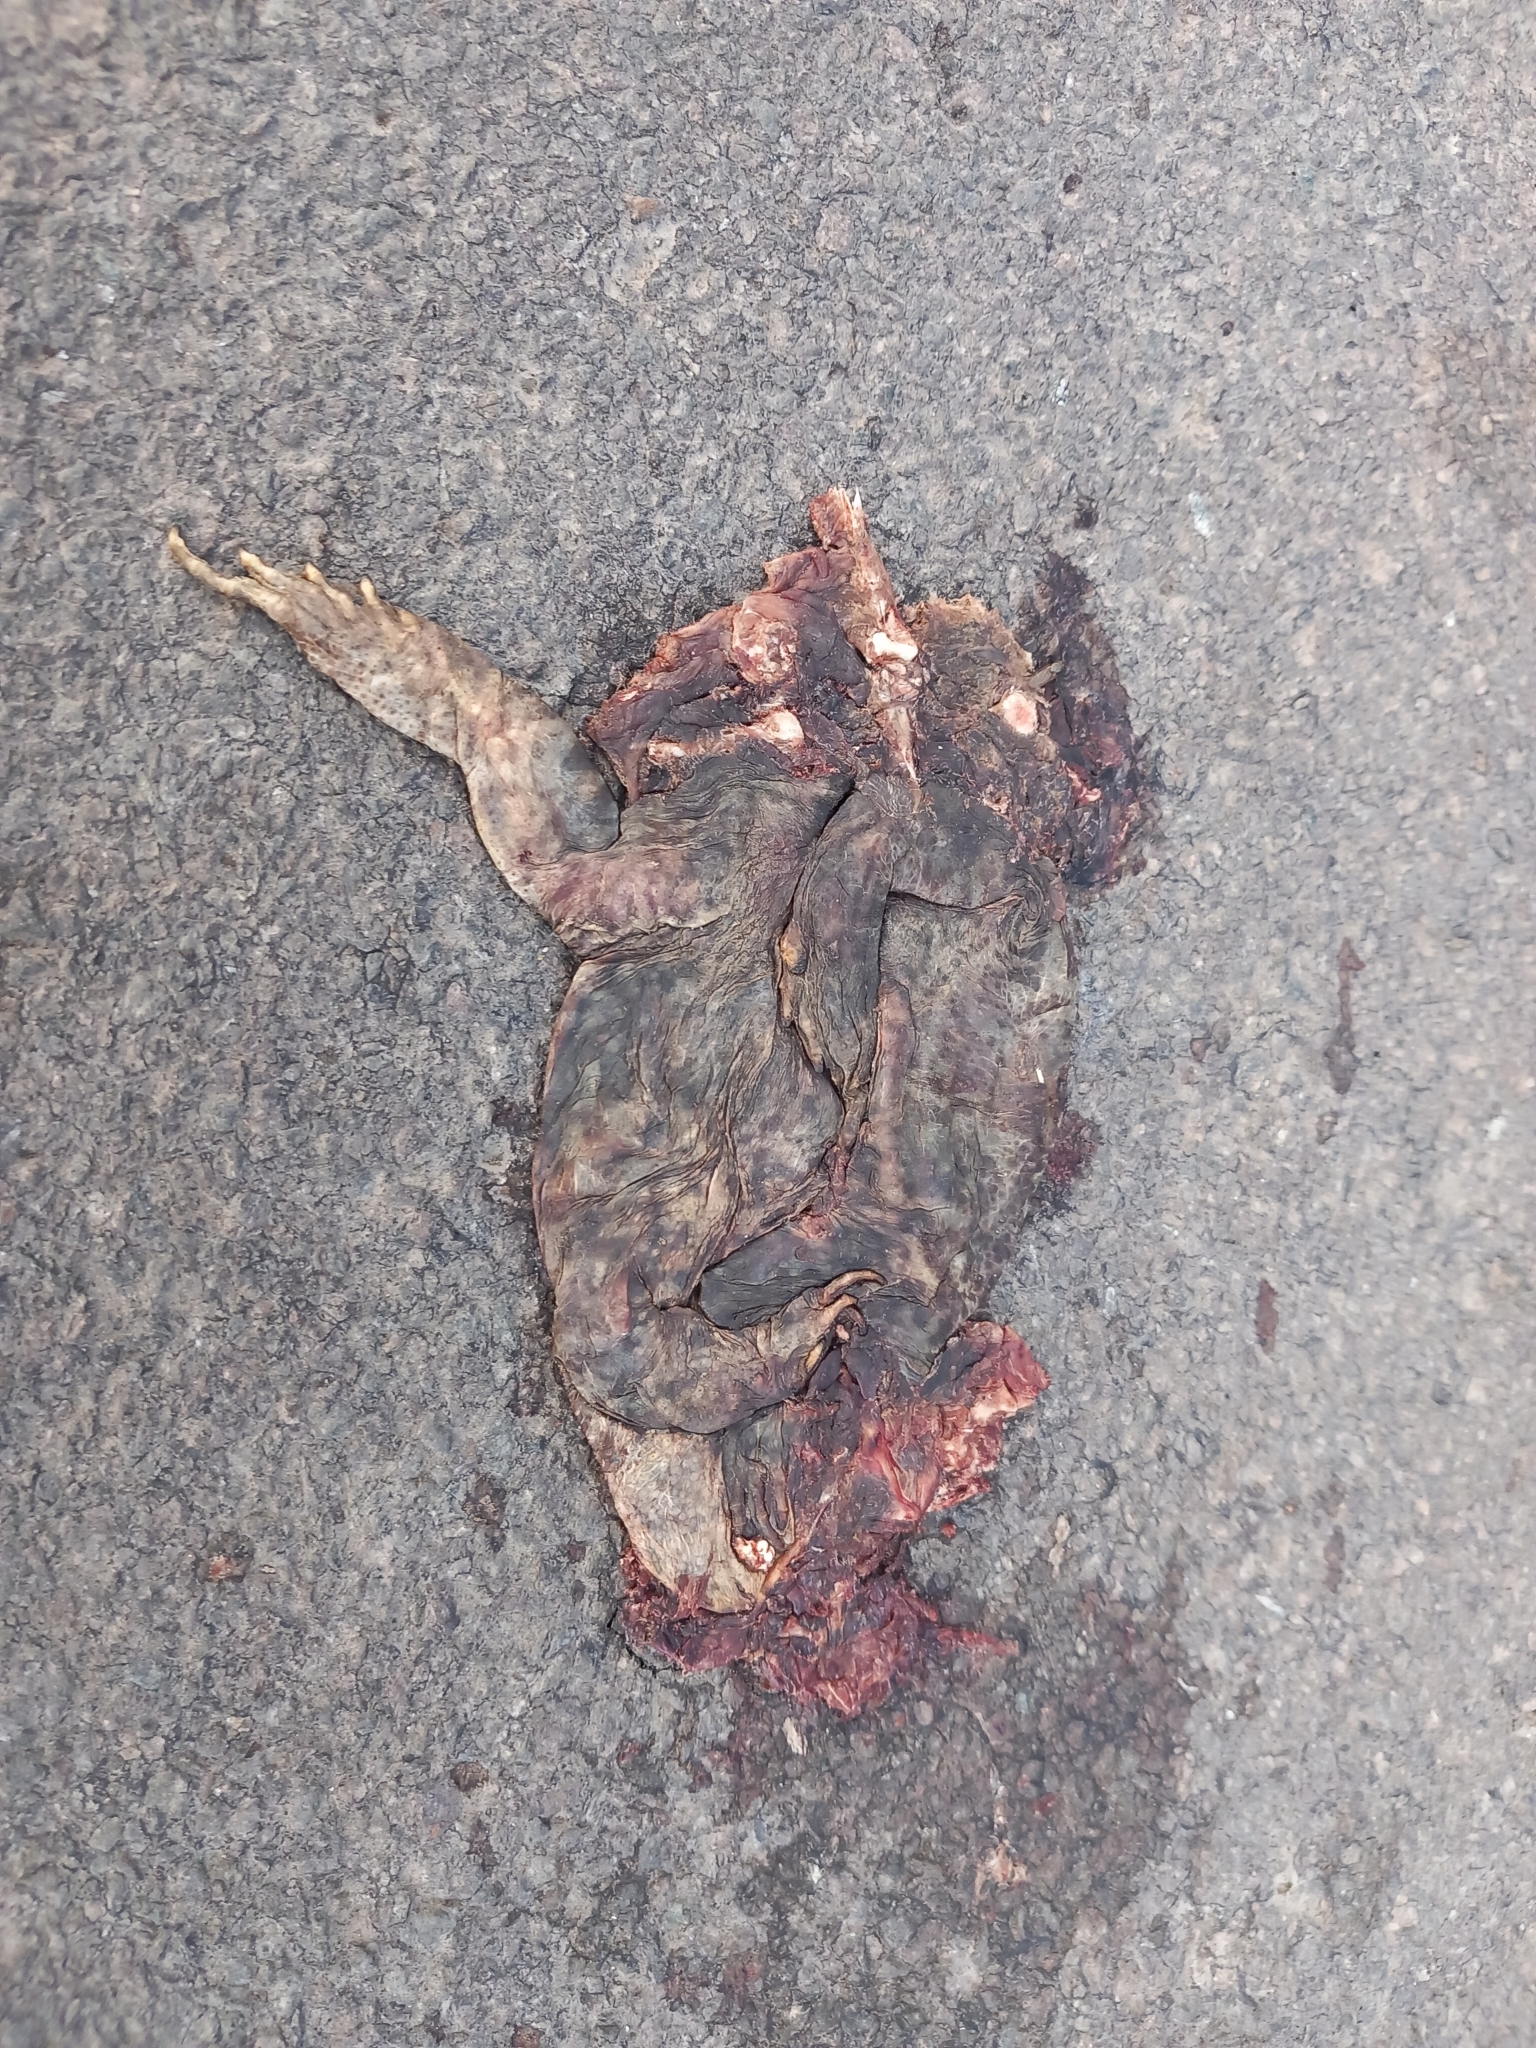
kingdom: Animalia
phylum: Chordata
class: Amphibia
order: Anura
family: Bufonidae
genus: Bufo
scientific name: Bufo bufo
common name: Common toad
